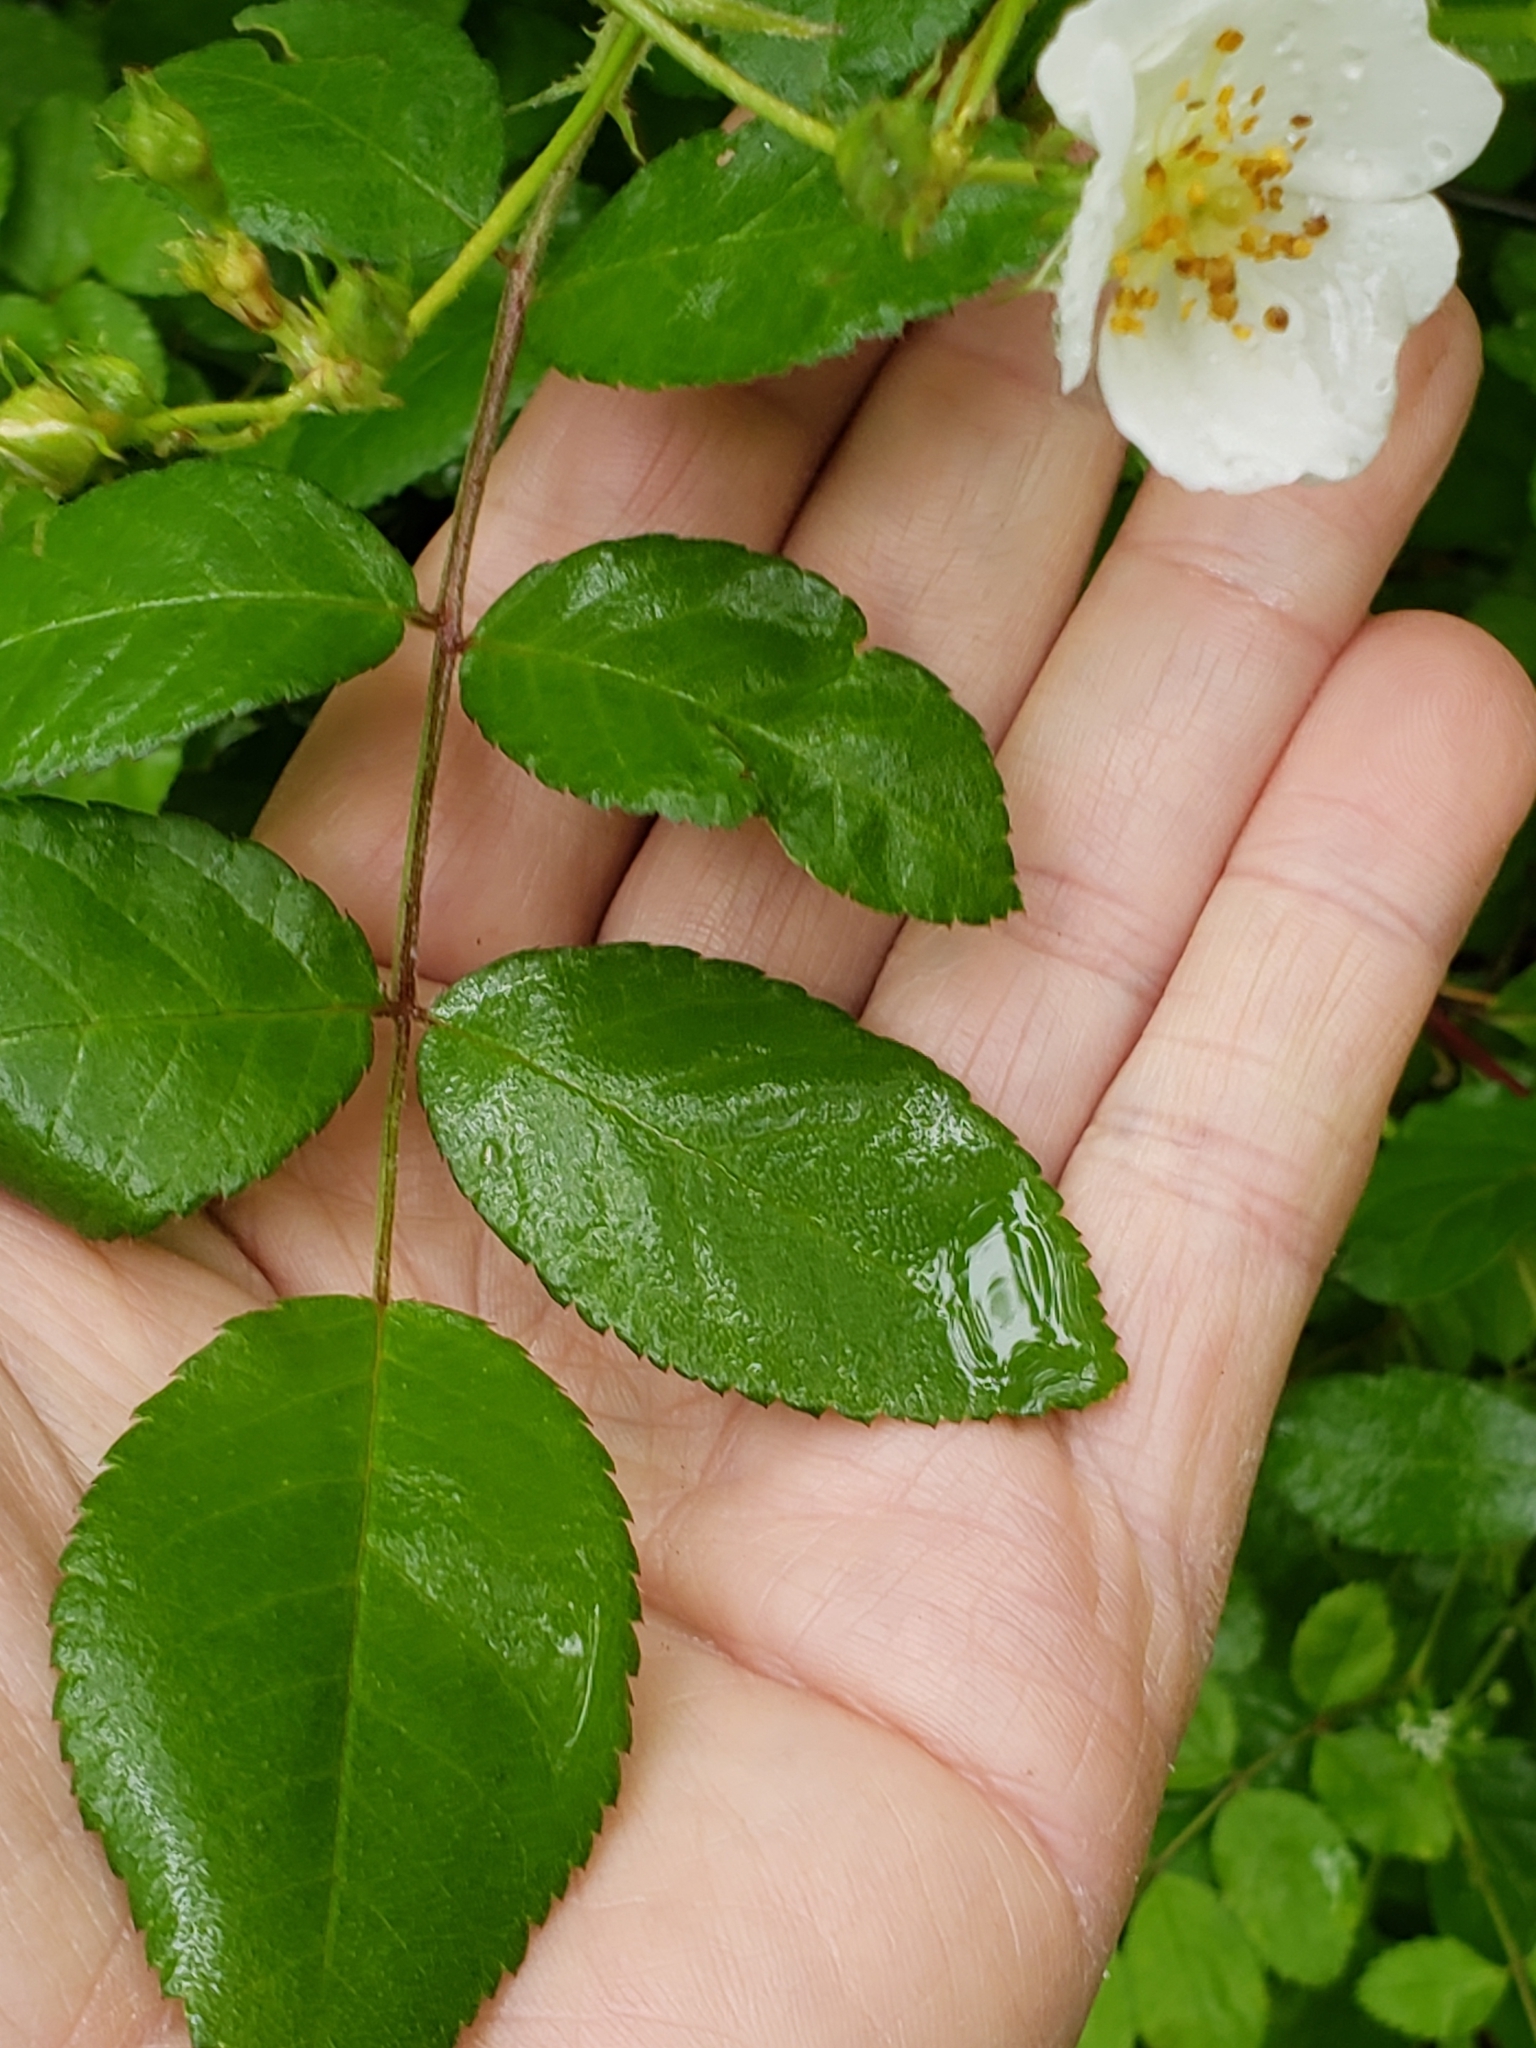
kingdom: Plantae
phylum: Tracheophyta
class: Magnoliopsida
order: Rosales
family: Rosaceae
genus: Rosa
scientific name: Rosa multiflora
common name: Multiflora rose
